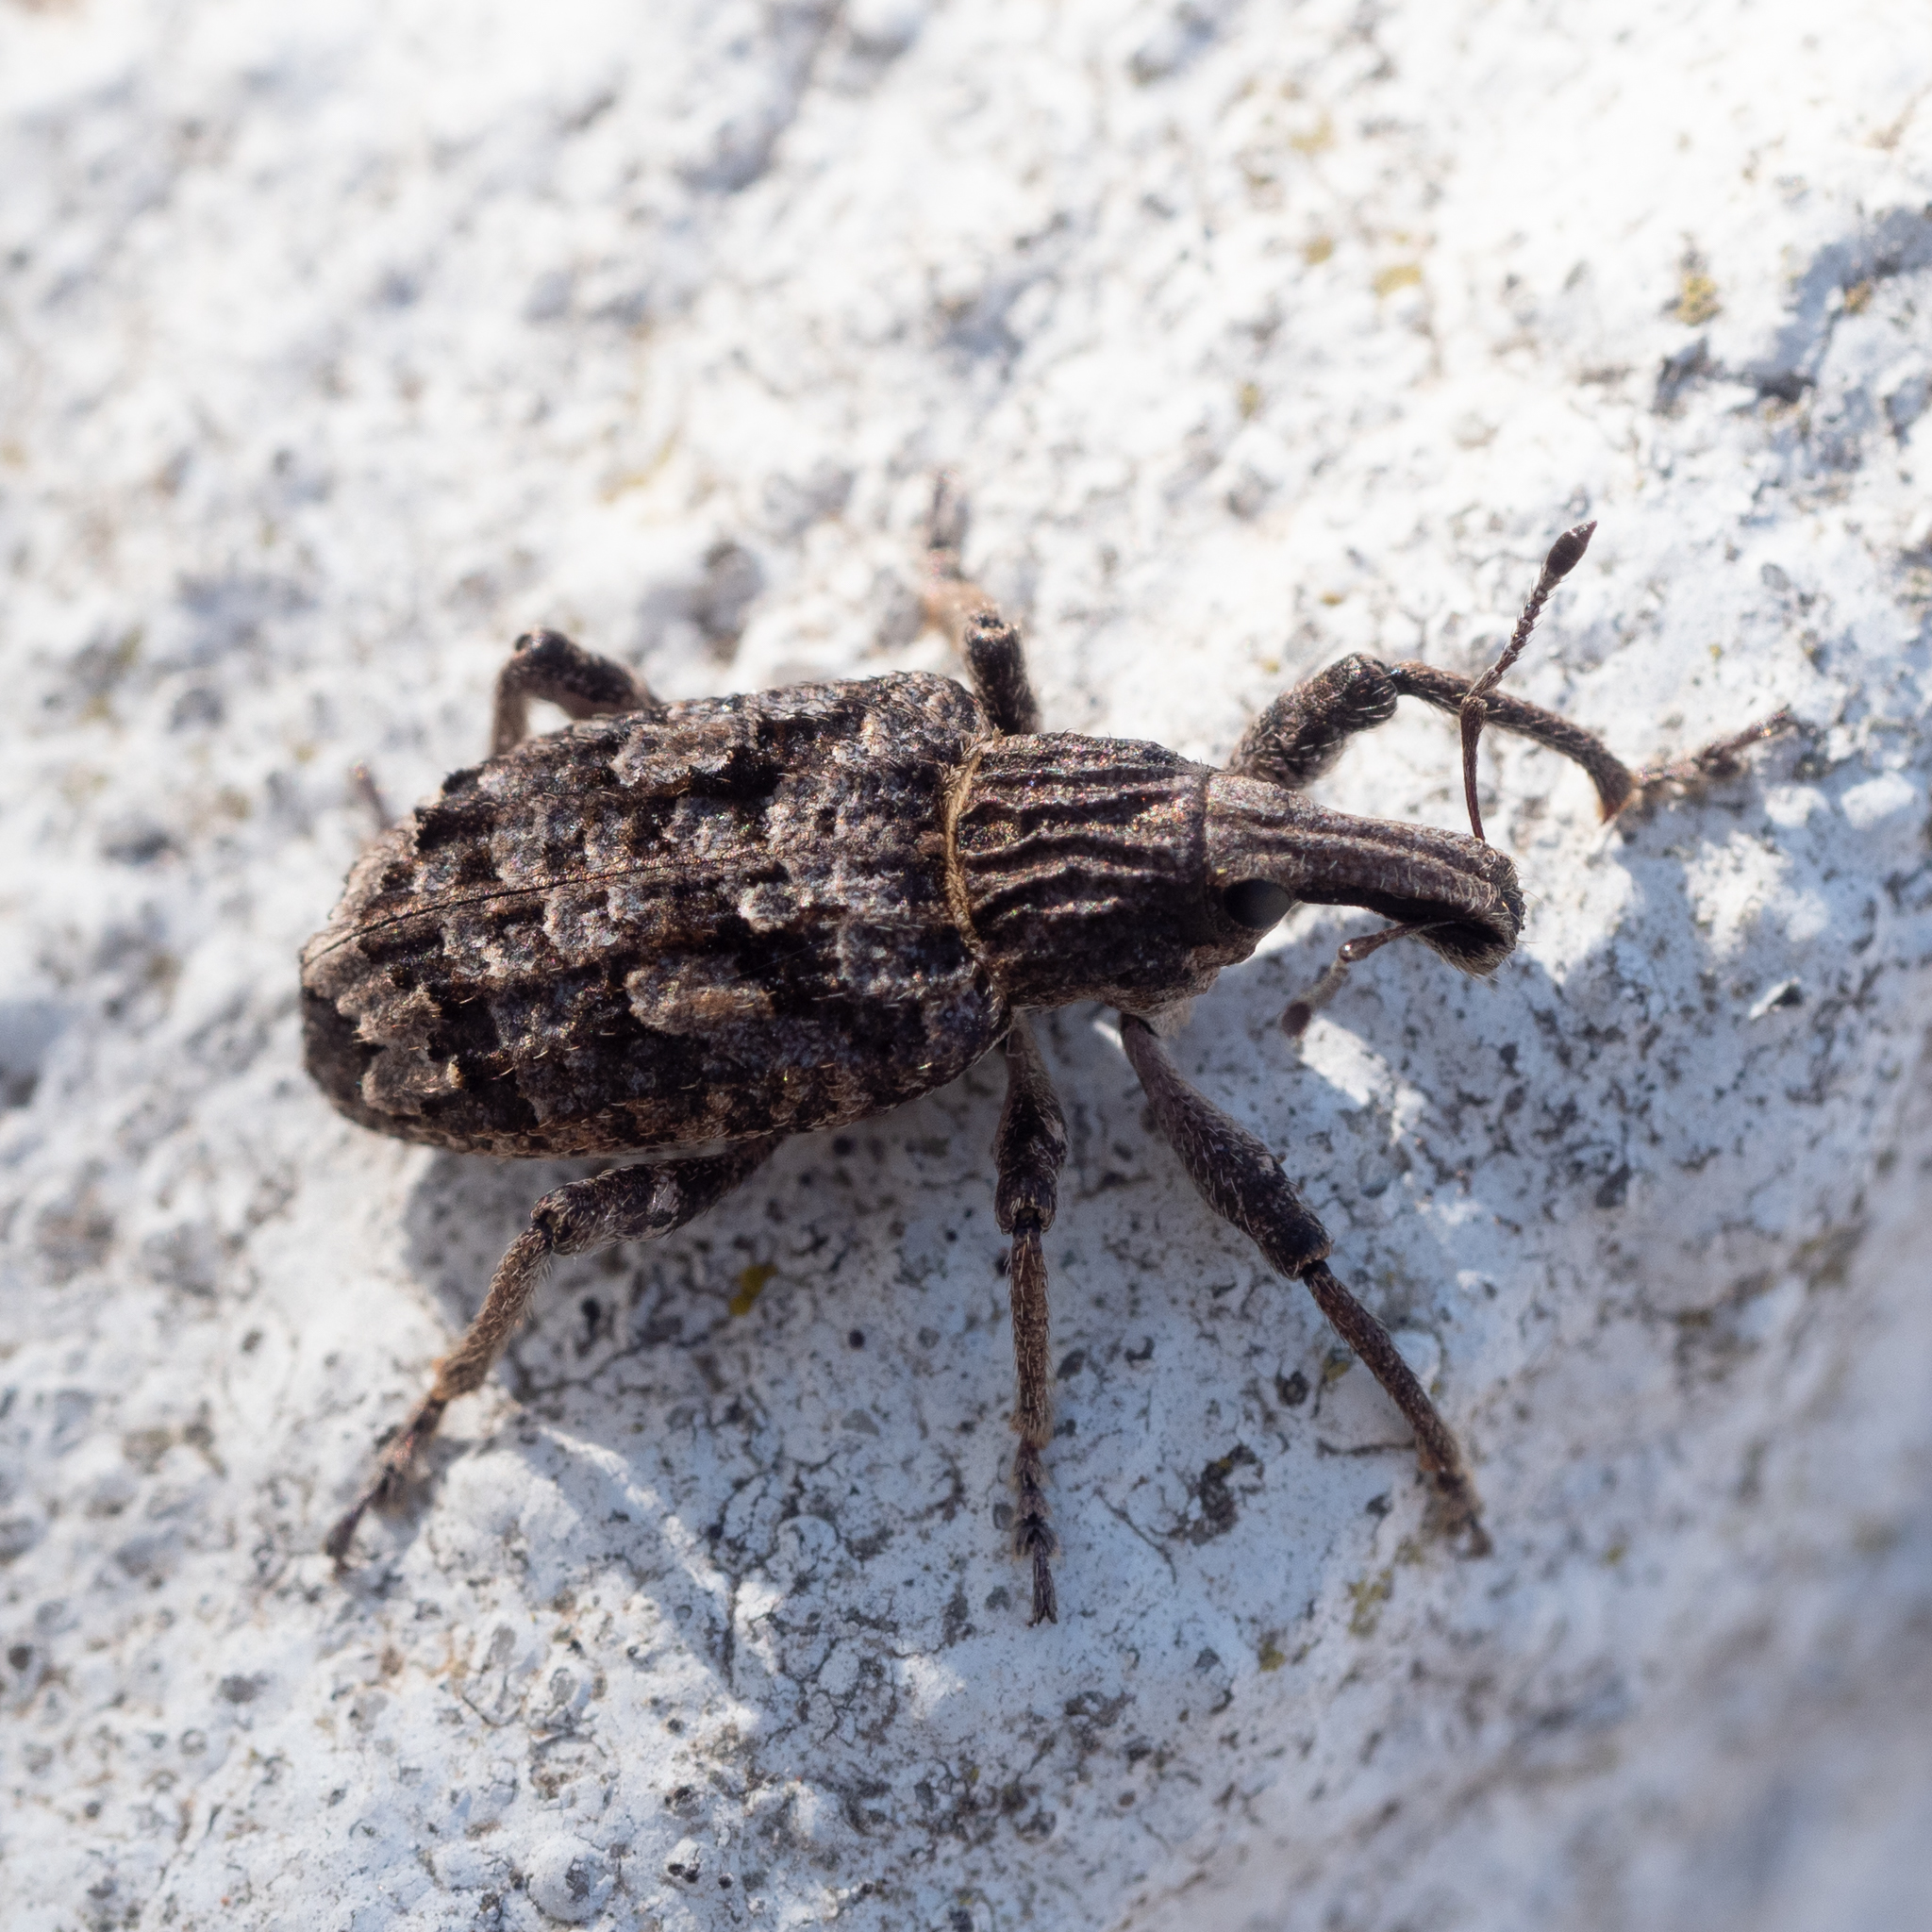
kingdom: Animalia
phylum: Arthropoda
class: Insecta
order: Coleoptera
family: Curculionidae
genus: Rhytideres
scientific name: Rhytideres plicatus
